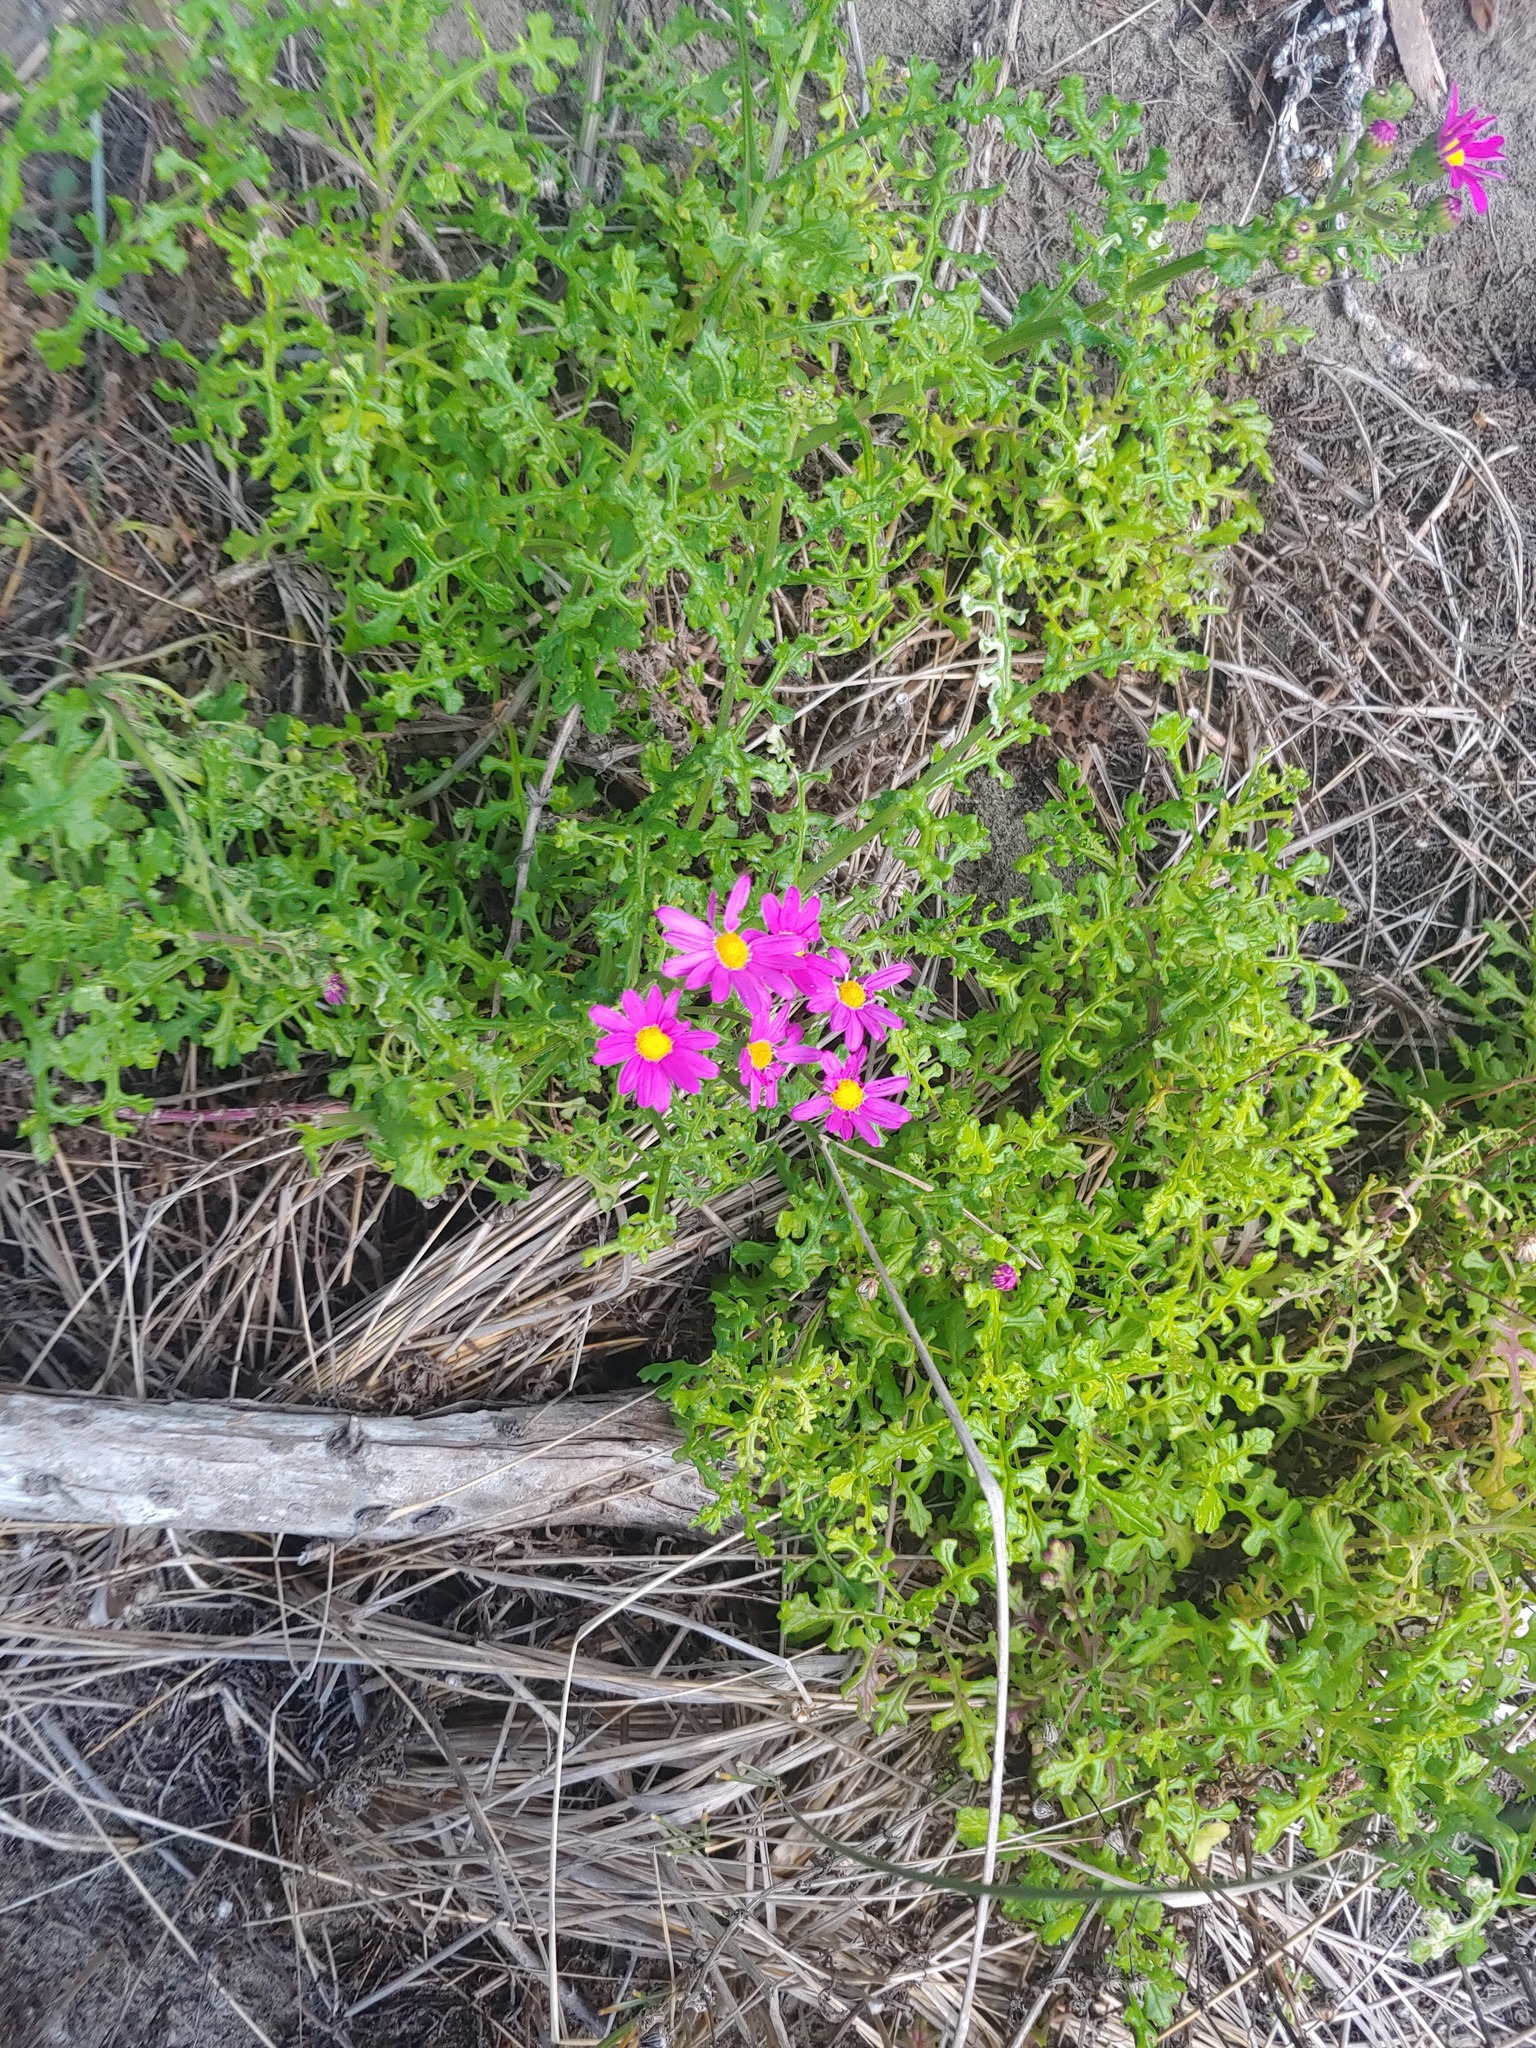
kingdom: Plantae
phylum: Tracheophyta
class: Magnoliopsida
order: Asterales
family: Asteraceae
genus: Senecio
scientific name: Senecio elegans
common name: Purple groundsel
